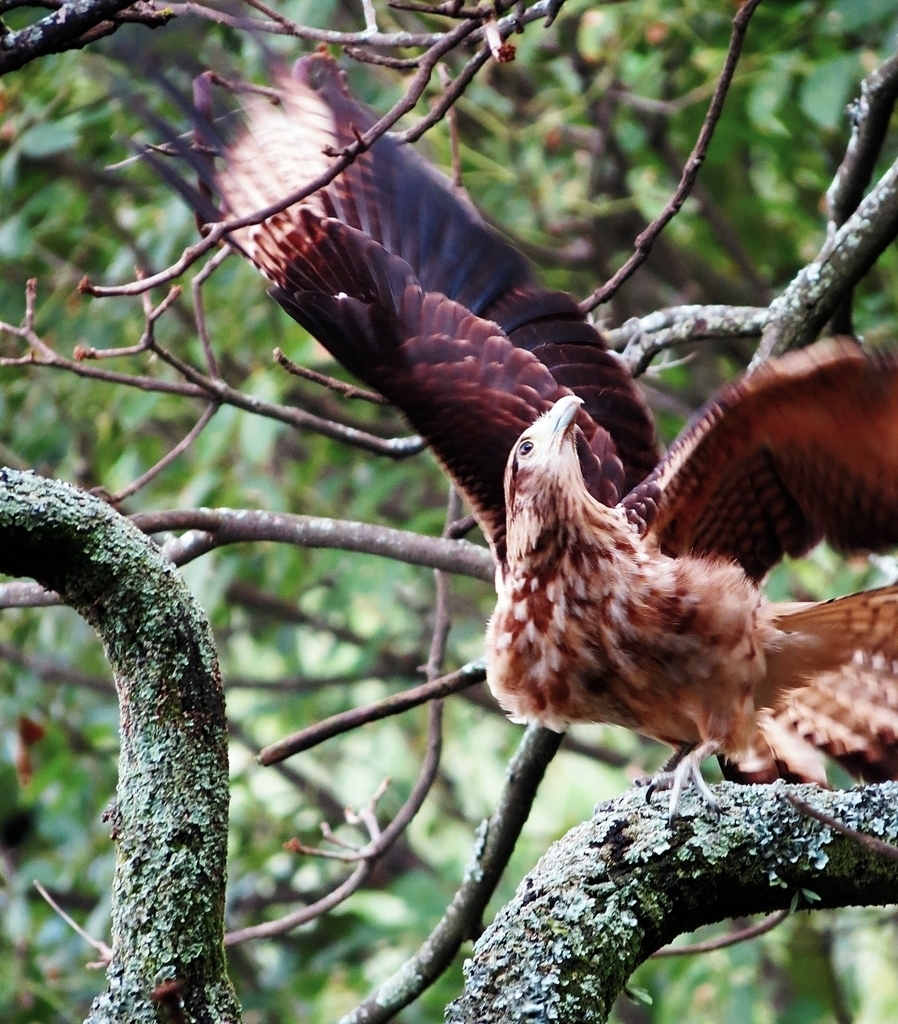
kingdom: Animalia
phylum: Chordata
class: Aves
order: Falconiformes
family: Falconidae
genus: Daptrius
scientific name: Daptrius
